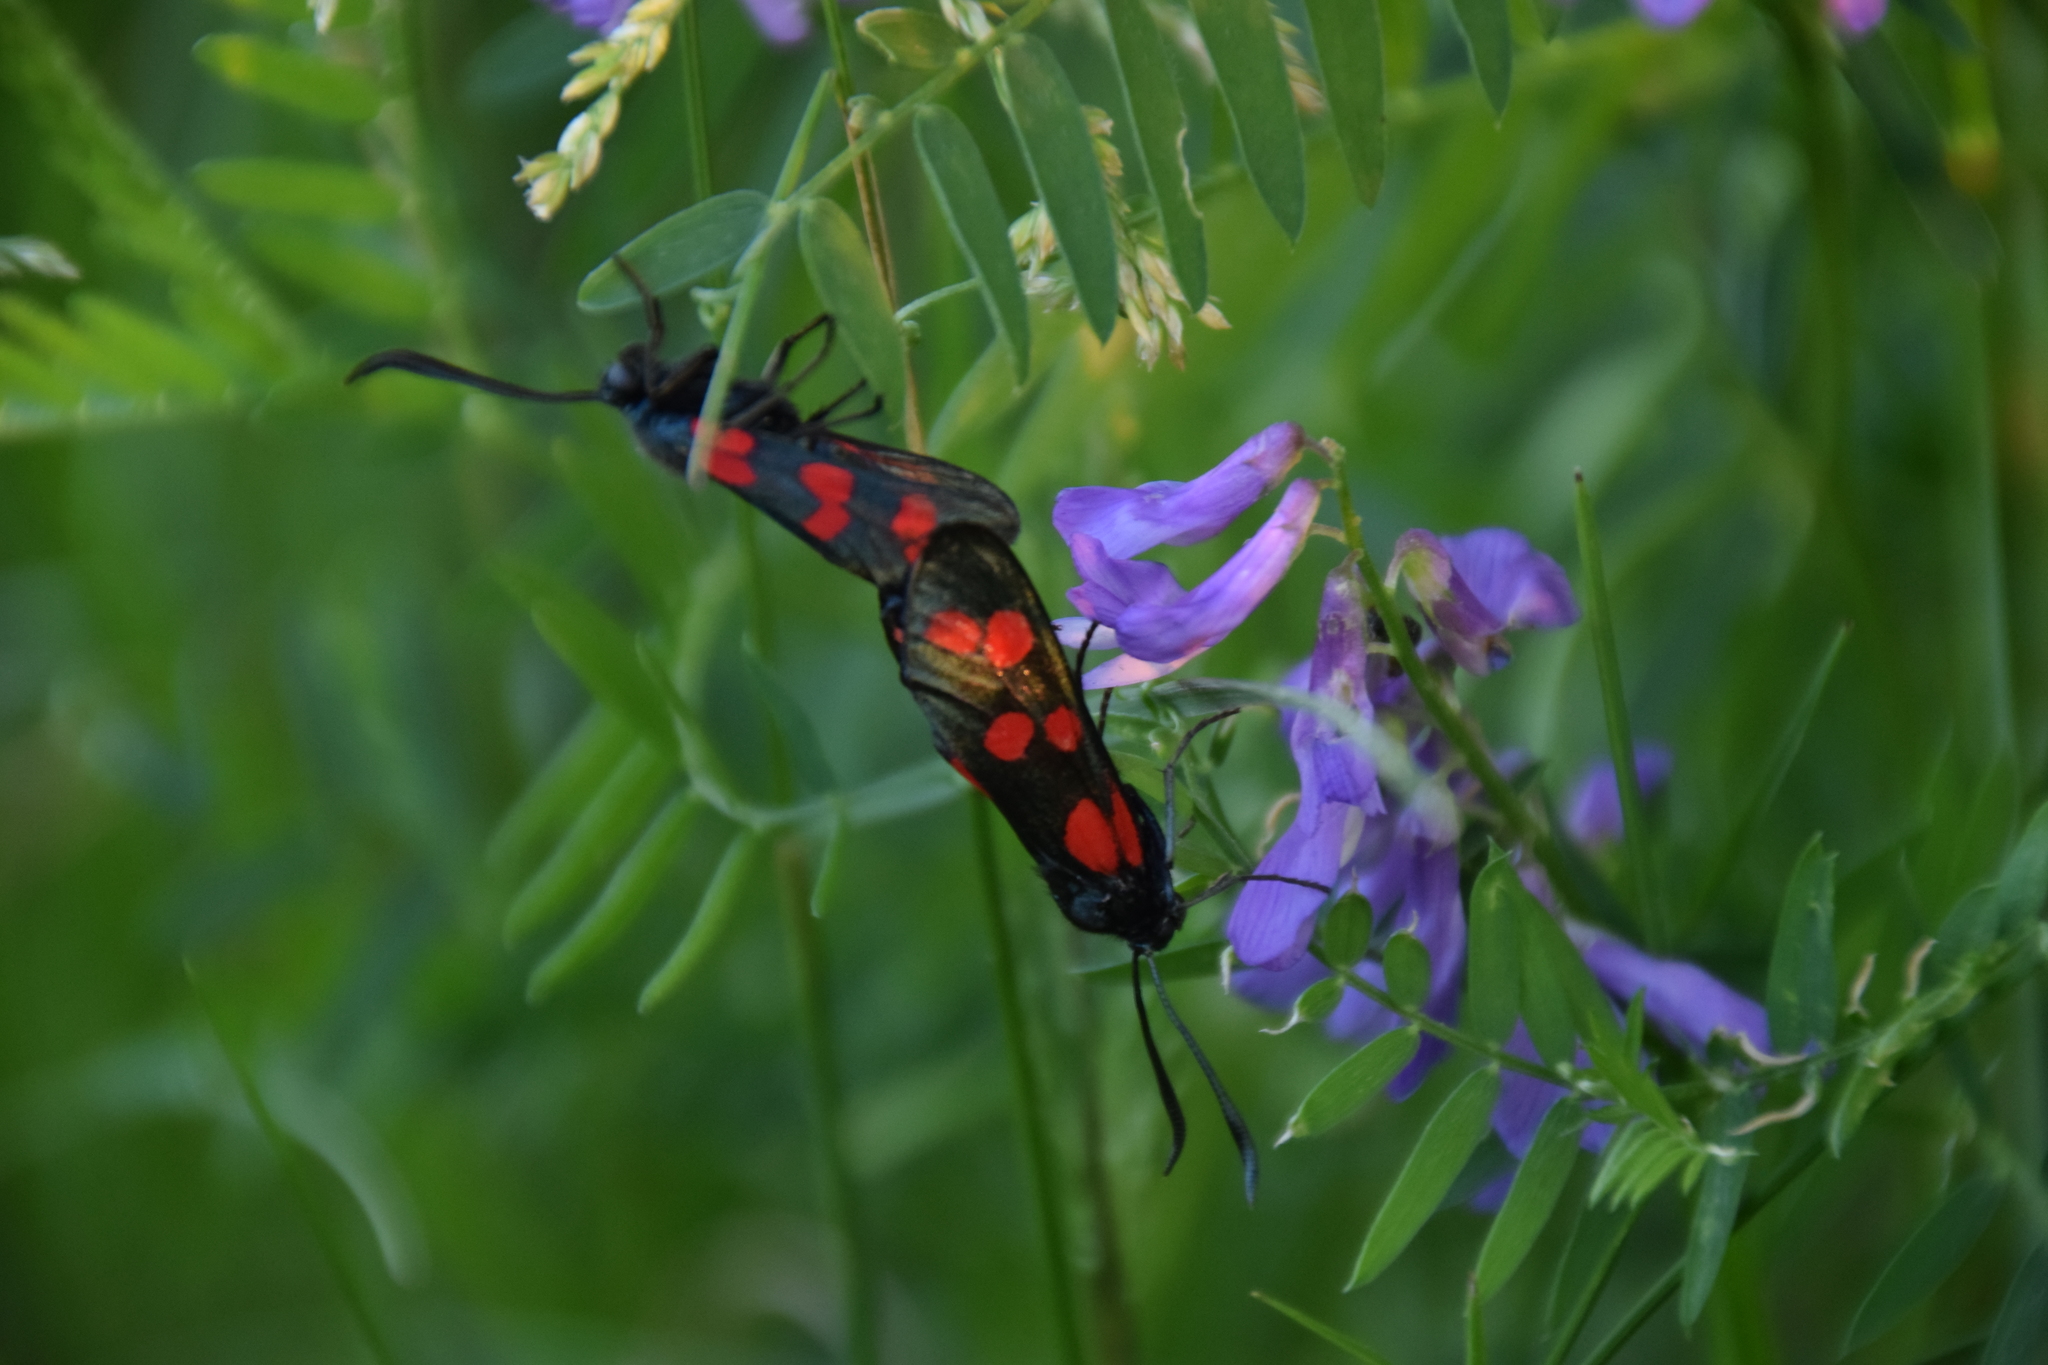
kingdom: Animalia
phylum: Arthropoda
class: Insecta
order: Lepidoptera
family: Zygaenidae
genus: Zygaena
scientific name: Zygaena filipendulae
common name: Six-spot burnet
